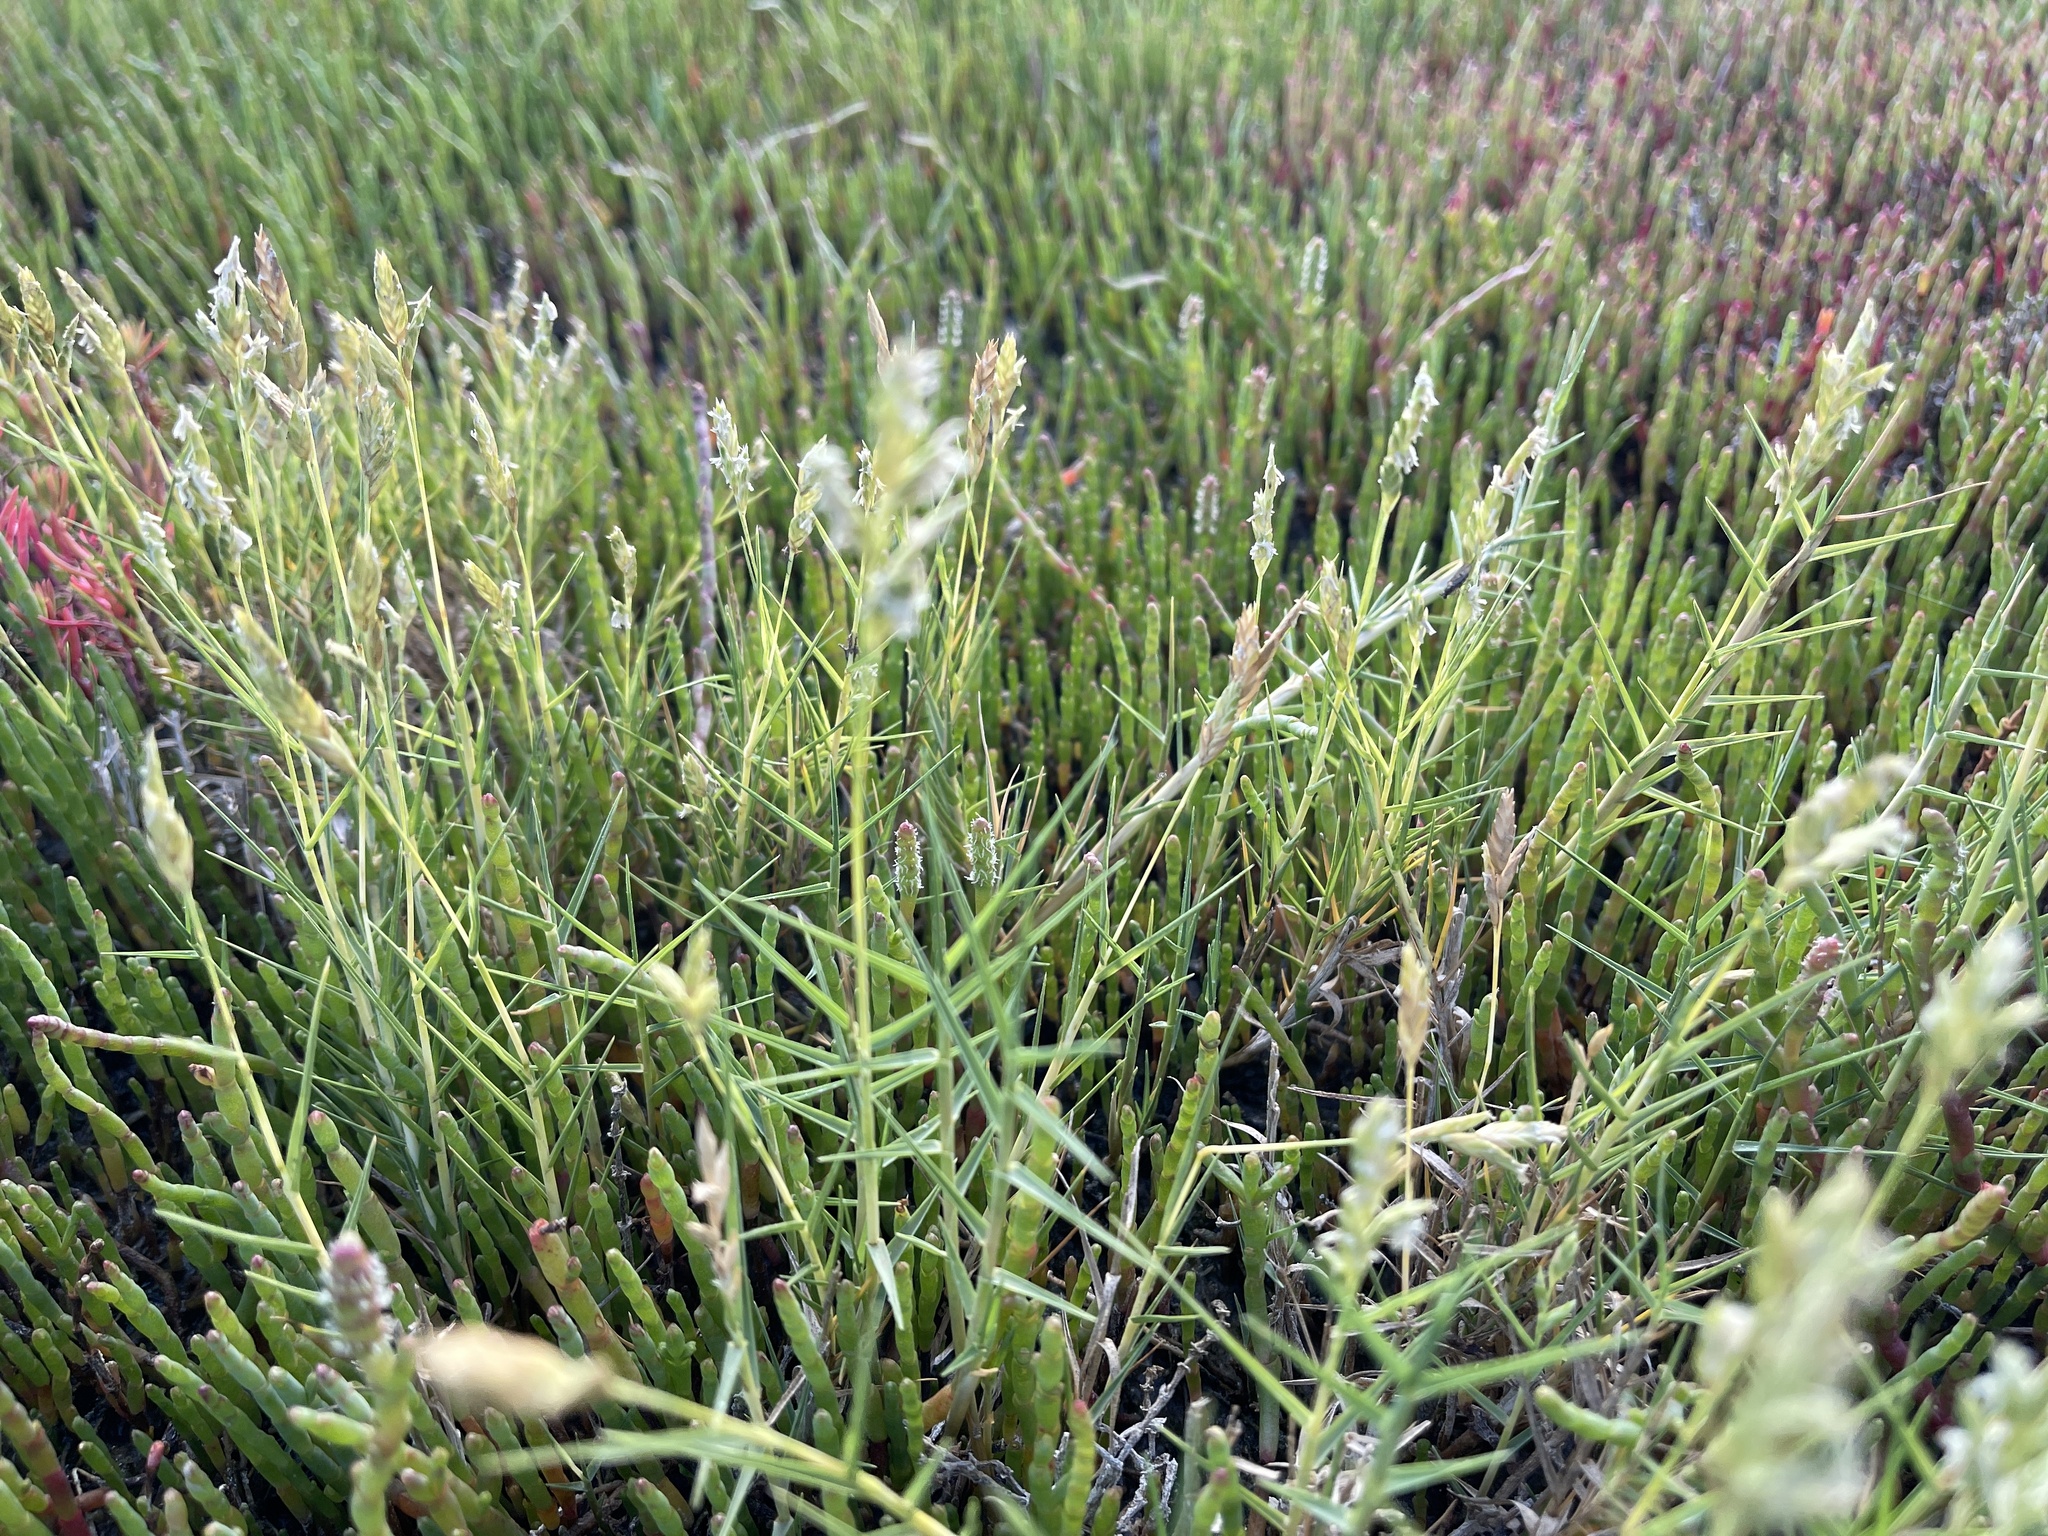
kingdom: Plantae
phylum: Tracheophyta
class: Liliopsida
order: Poales
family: Poaceae
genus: Distichlis
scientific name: Distichlis distichophylla
